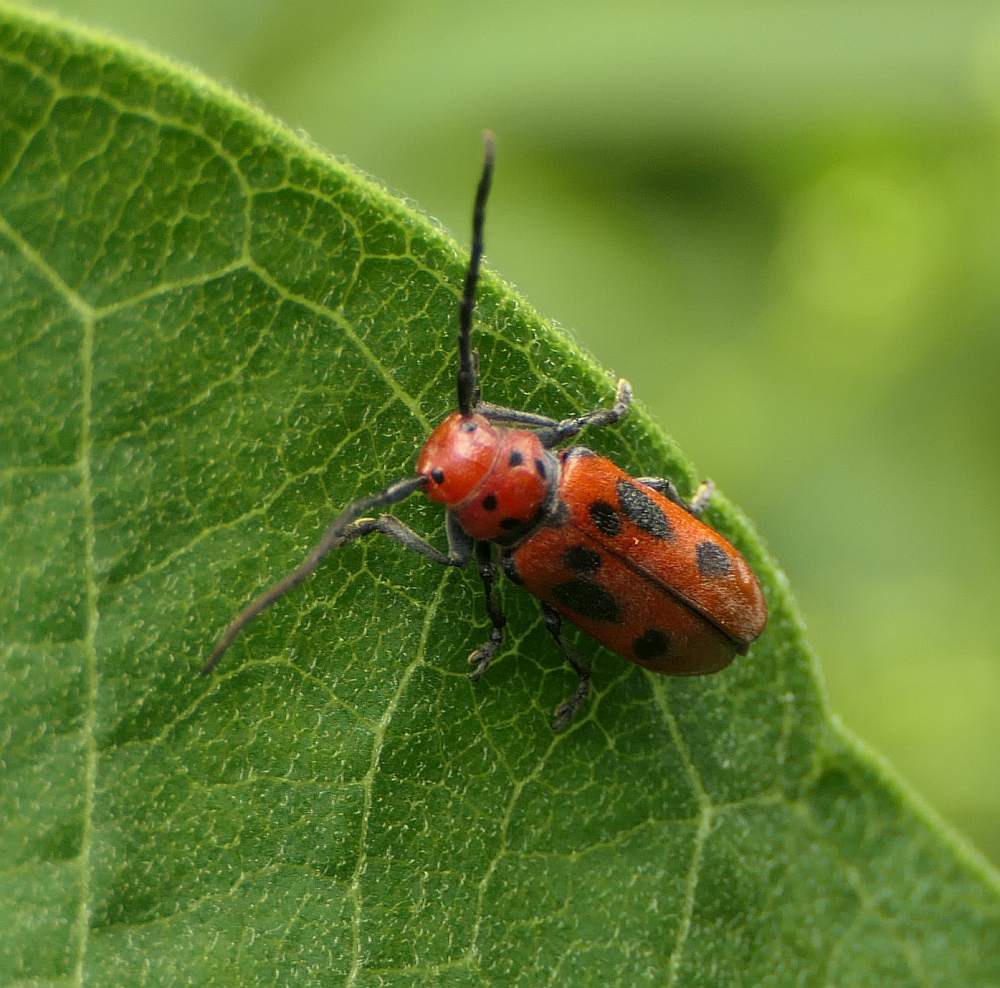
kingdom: Animalia
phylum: Arthropoda
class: Insecta
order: Coleoptera
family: Cerambycidae
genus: Tetraopes
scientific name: Tetraopes tetrophthalmus
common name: Red milkweed beetle
